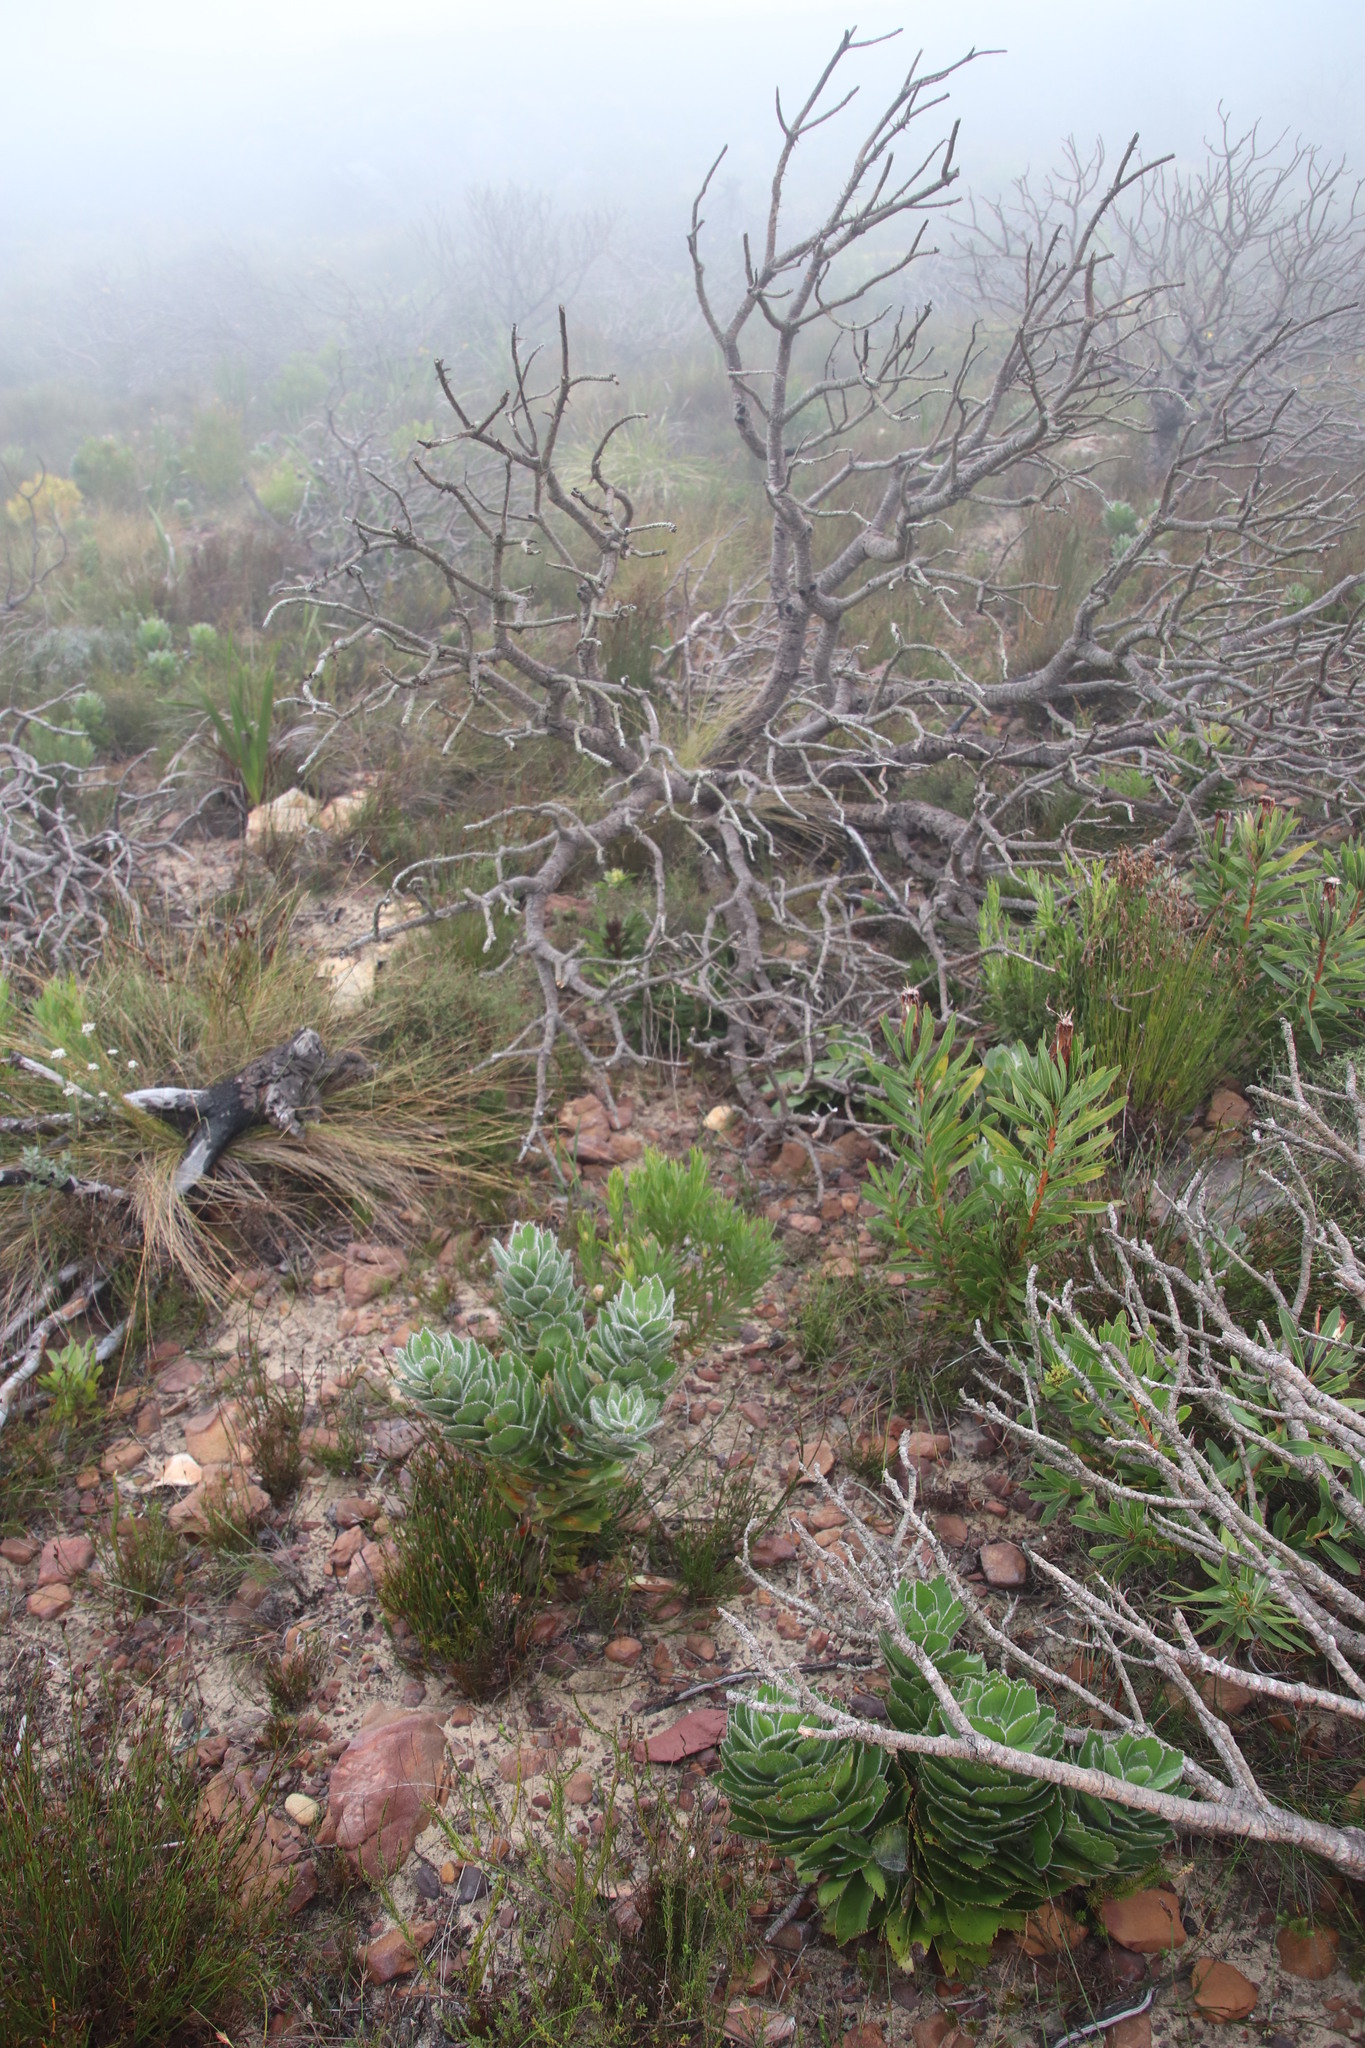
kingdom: Plantae
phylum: Tracheophyta
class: Magnoliopsida
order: Proteales
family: Proteaceae
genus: Leucospermum
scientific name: Leucospermum conocarpodendron
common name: Tree pincushion
